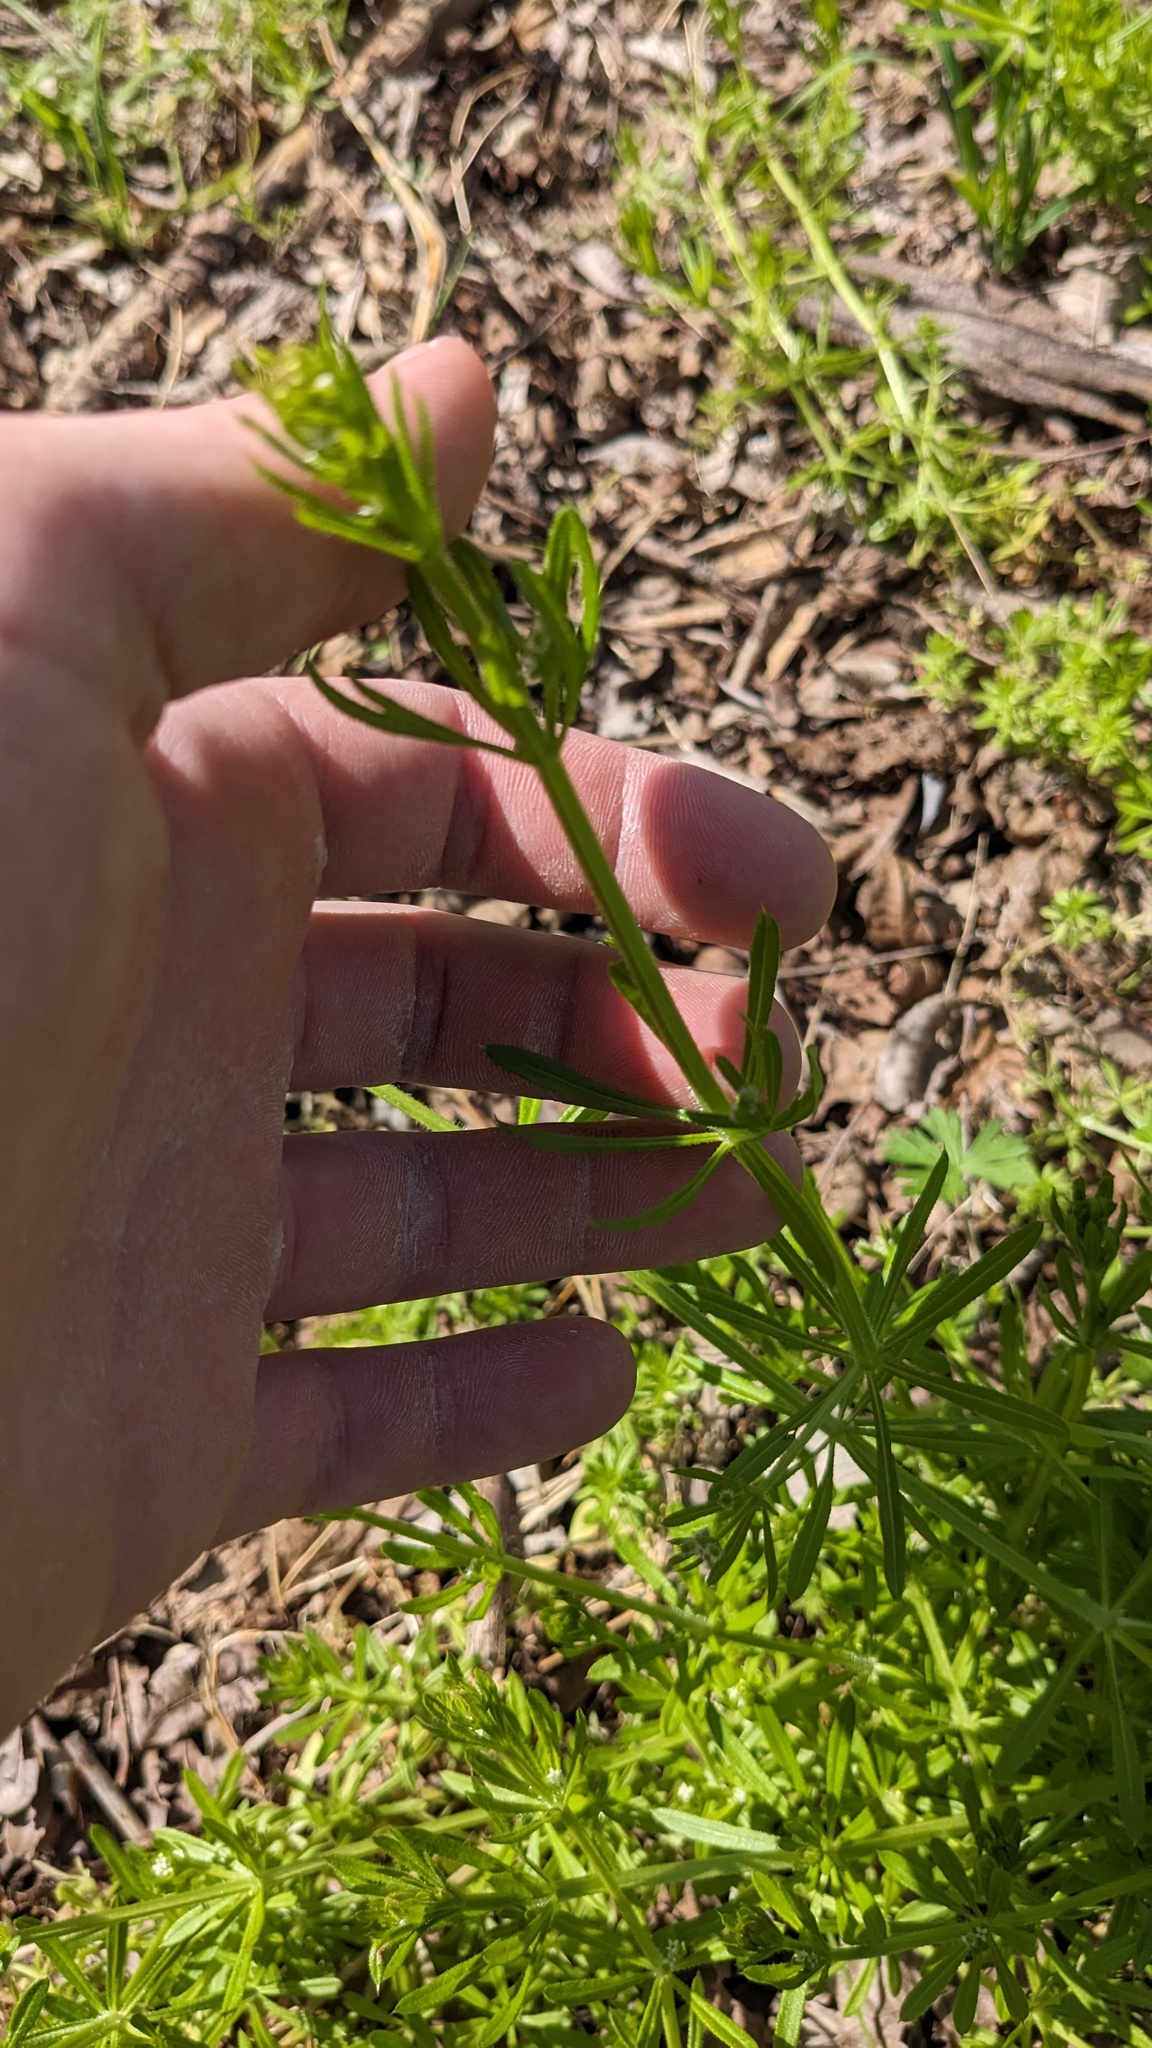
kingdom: Plantae
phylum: Tracheophyta
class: Magnoliopsida
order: Gentianales
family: Rubiaceae
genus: Galium
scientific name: Galium aparine
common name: Cleavers
